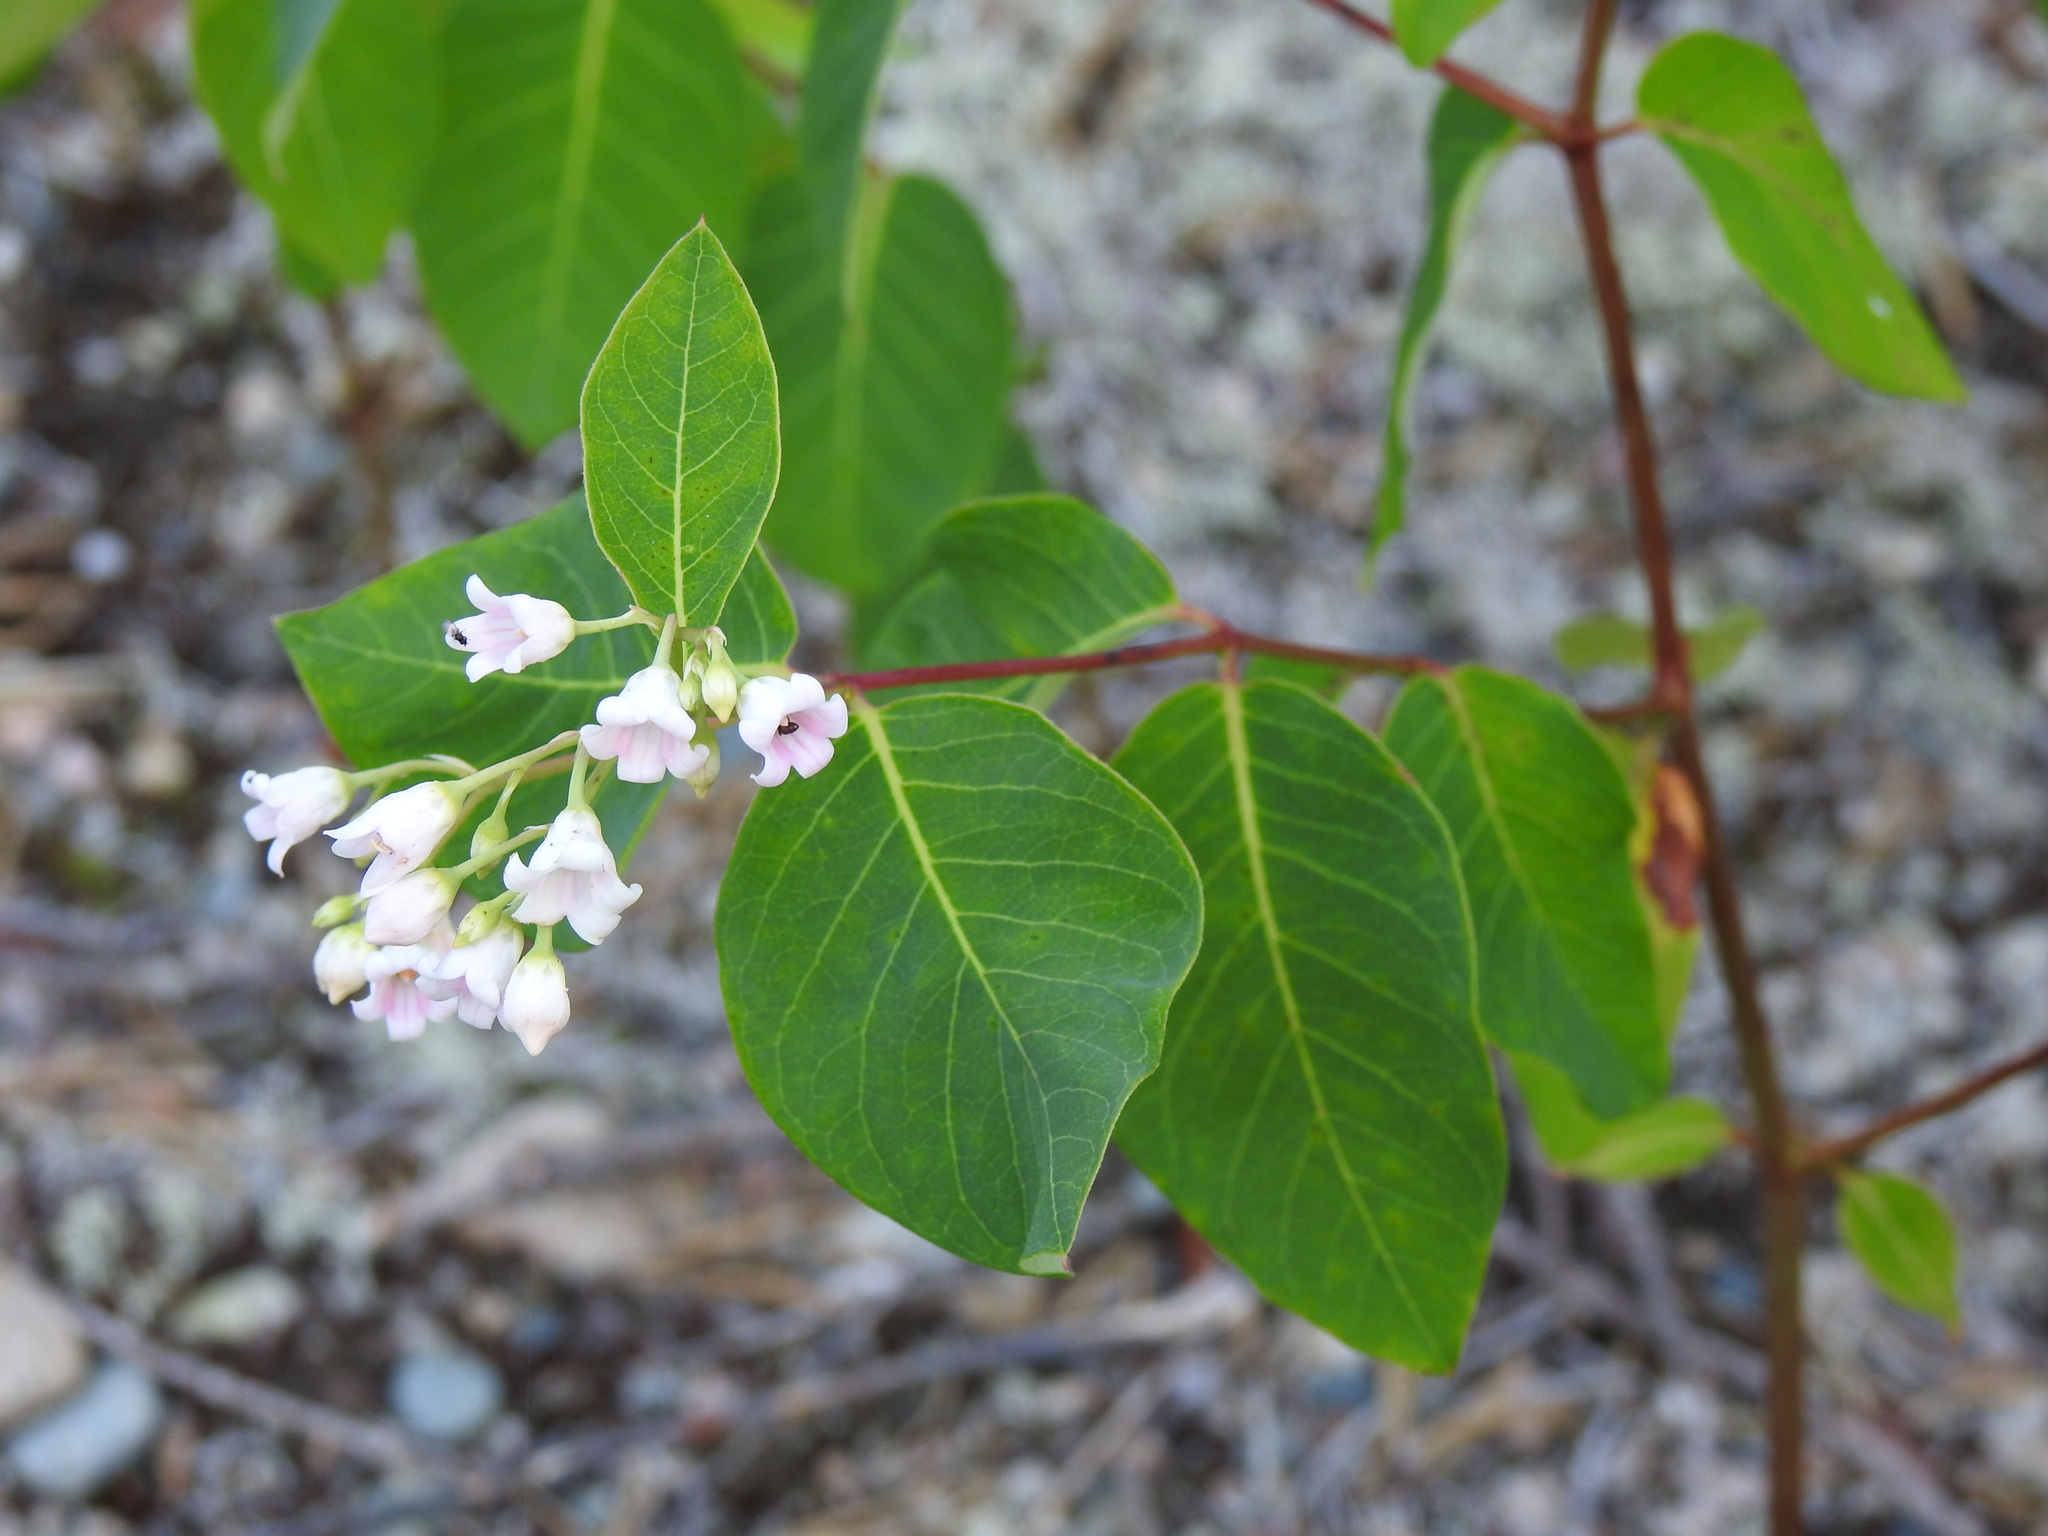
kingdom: Plantae
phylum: Tracheophyta
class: Magnoliopsida
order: Gentianales
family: Apocynaceae
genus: Apocynum
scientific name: Apocynum androsaemifolium
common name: Spreading dogbane
